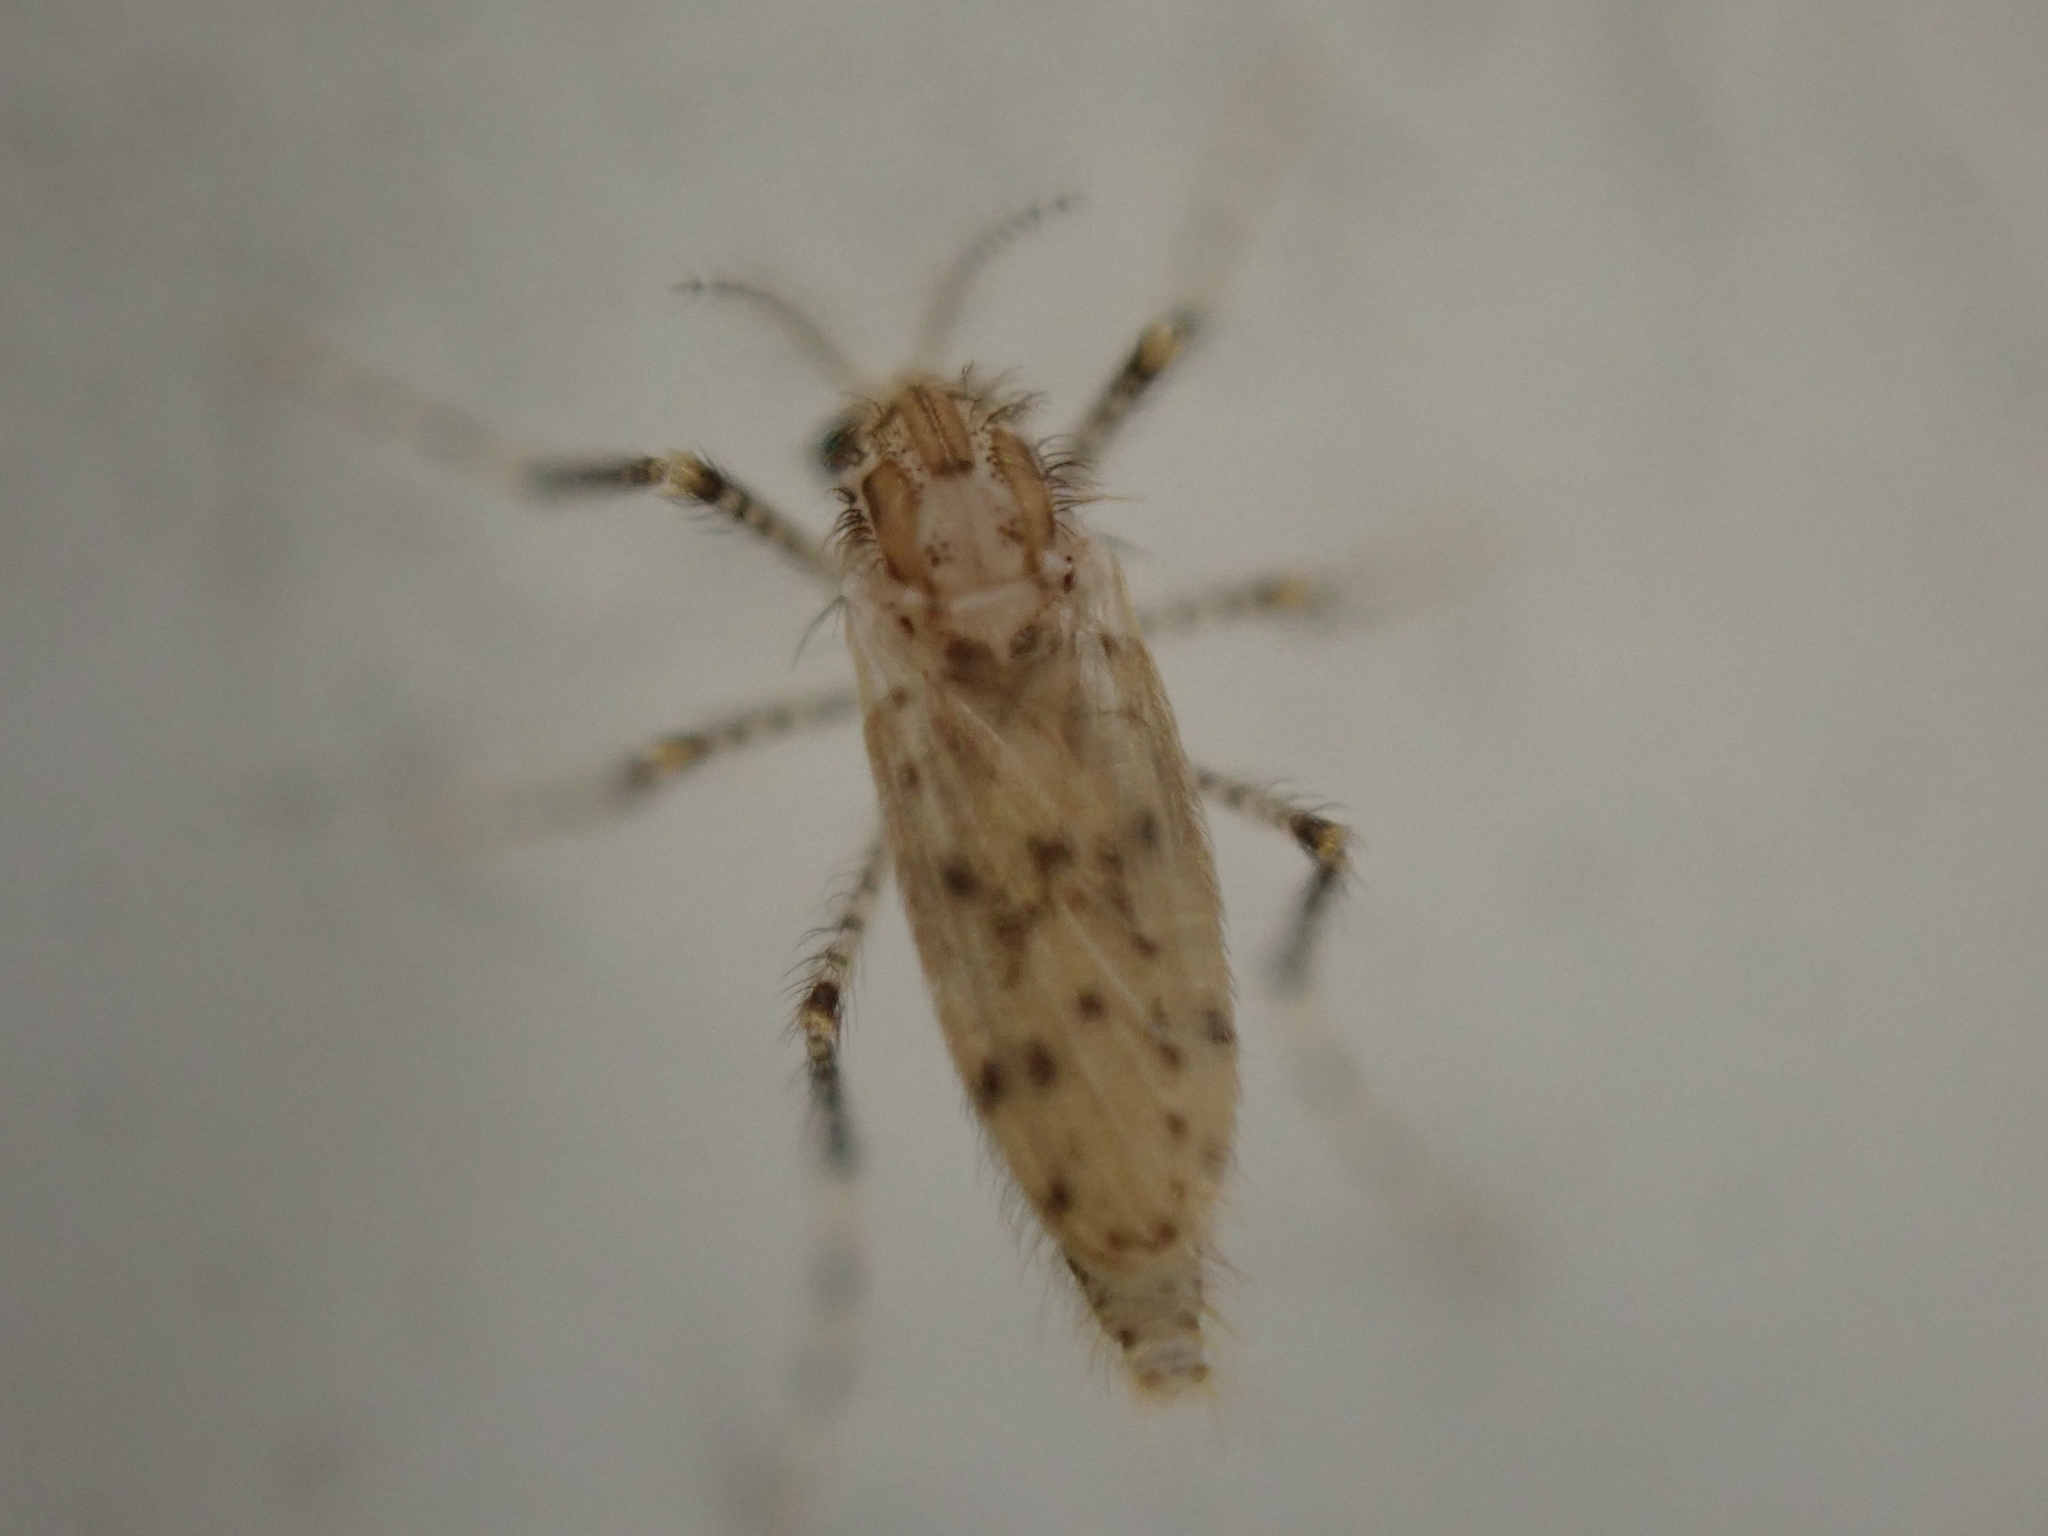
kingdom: Animalia
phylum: Arthropoda
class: Insecta
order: Diptera
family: Chaoboridae
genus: Chaoborus
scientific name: Chaoborus punctipennis
